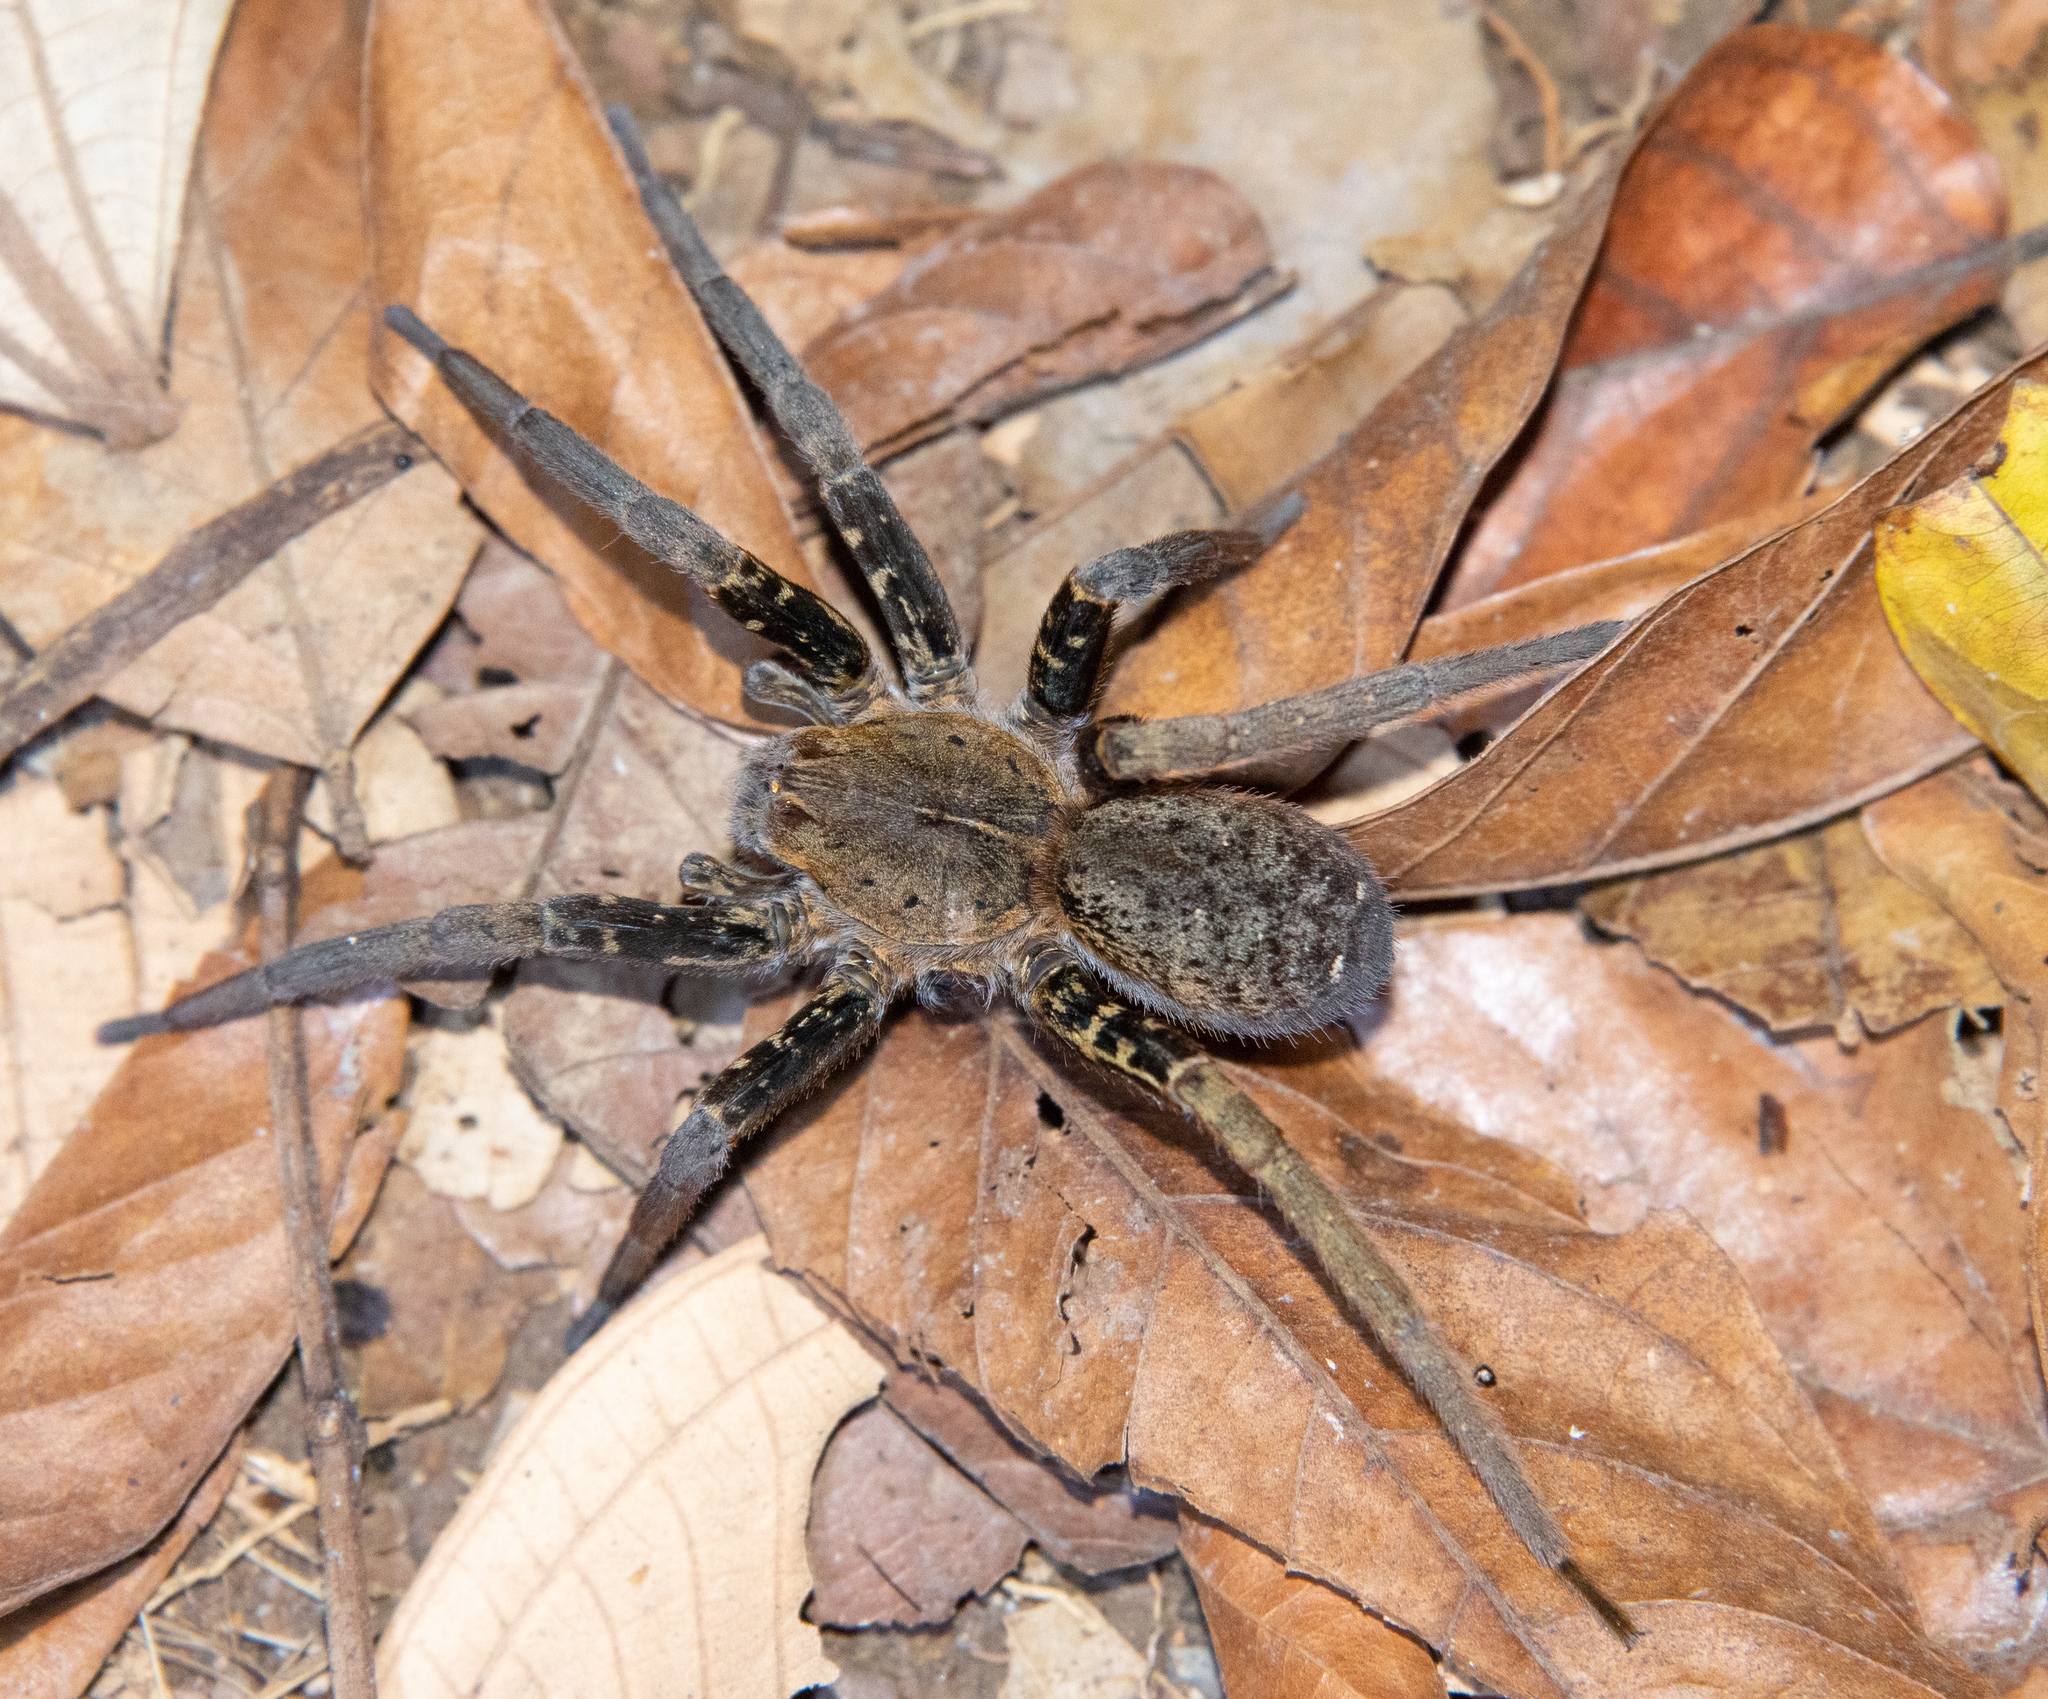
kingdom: Animalia
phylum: Arthropoda
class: Arachnida
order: Araneae
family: Ctenidae
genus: Ancylometes
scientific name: Ancylometes bogotensis
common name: Wandering spiders
